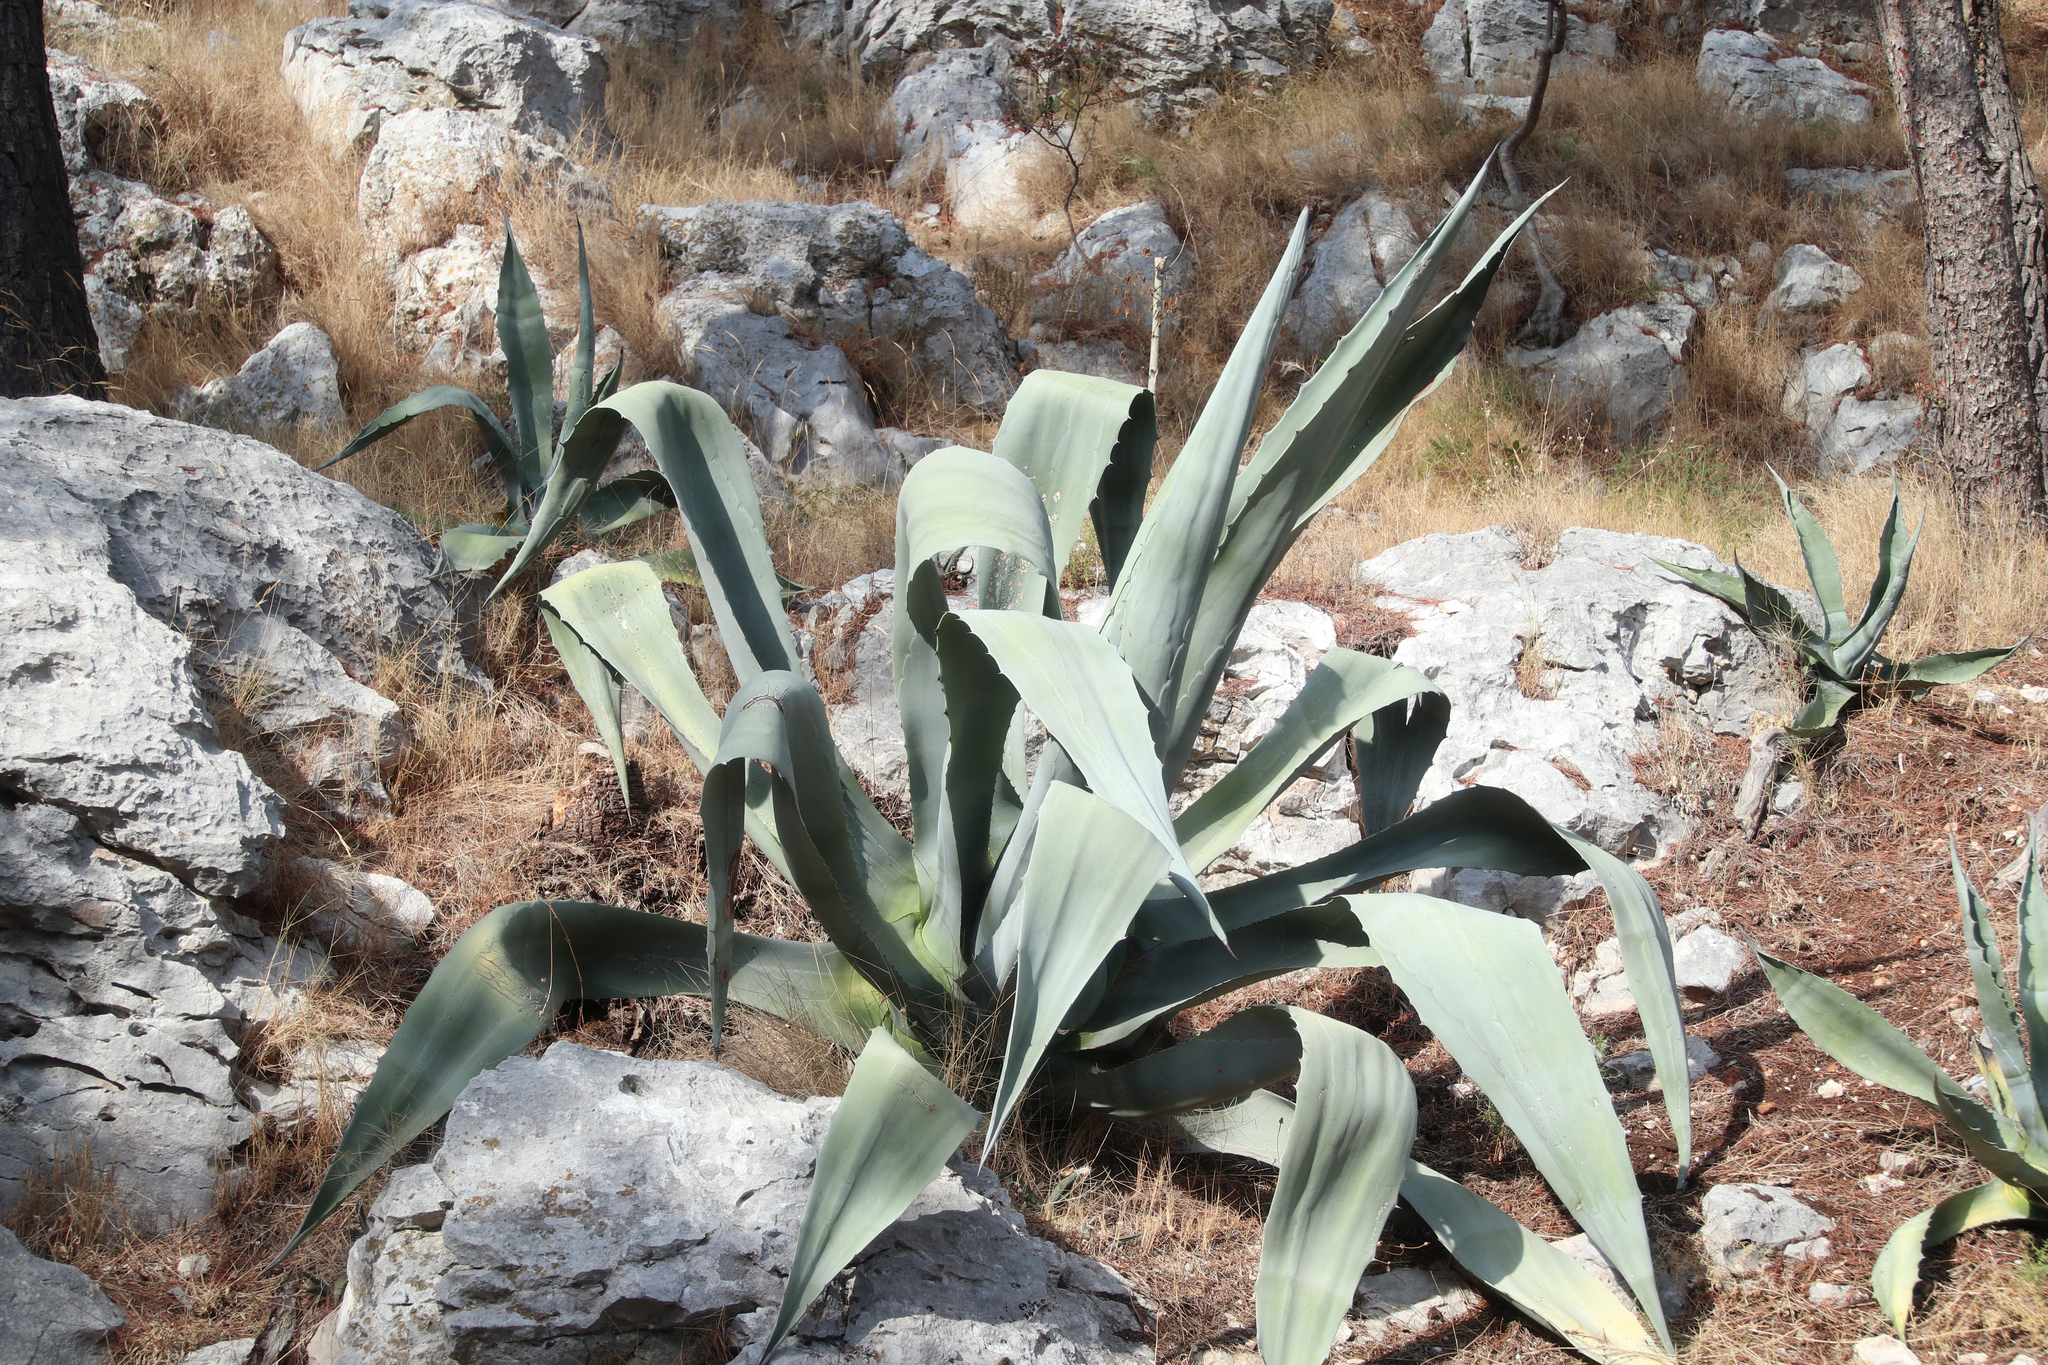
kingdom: Plantae
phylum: Tracheophyta
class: Liliopsida
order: Asparagales
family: Asparagaceae
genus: Agave
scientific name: Agave americana
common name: Centuryplant
